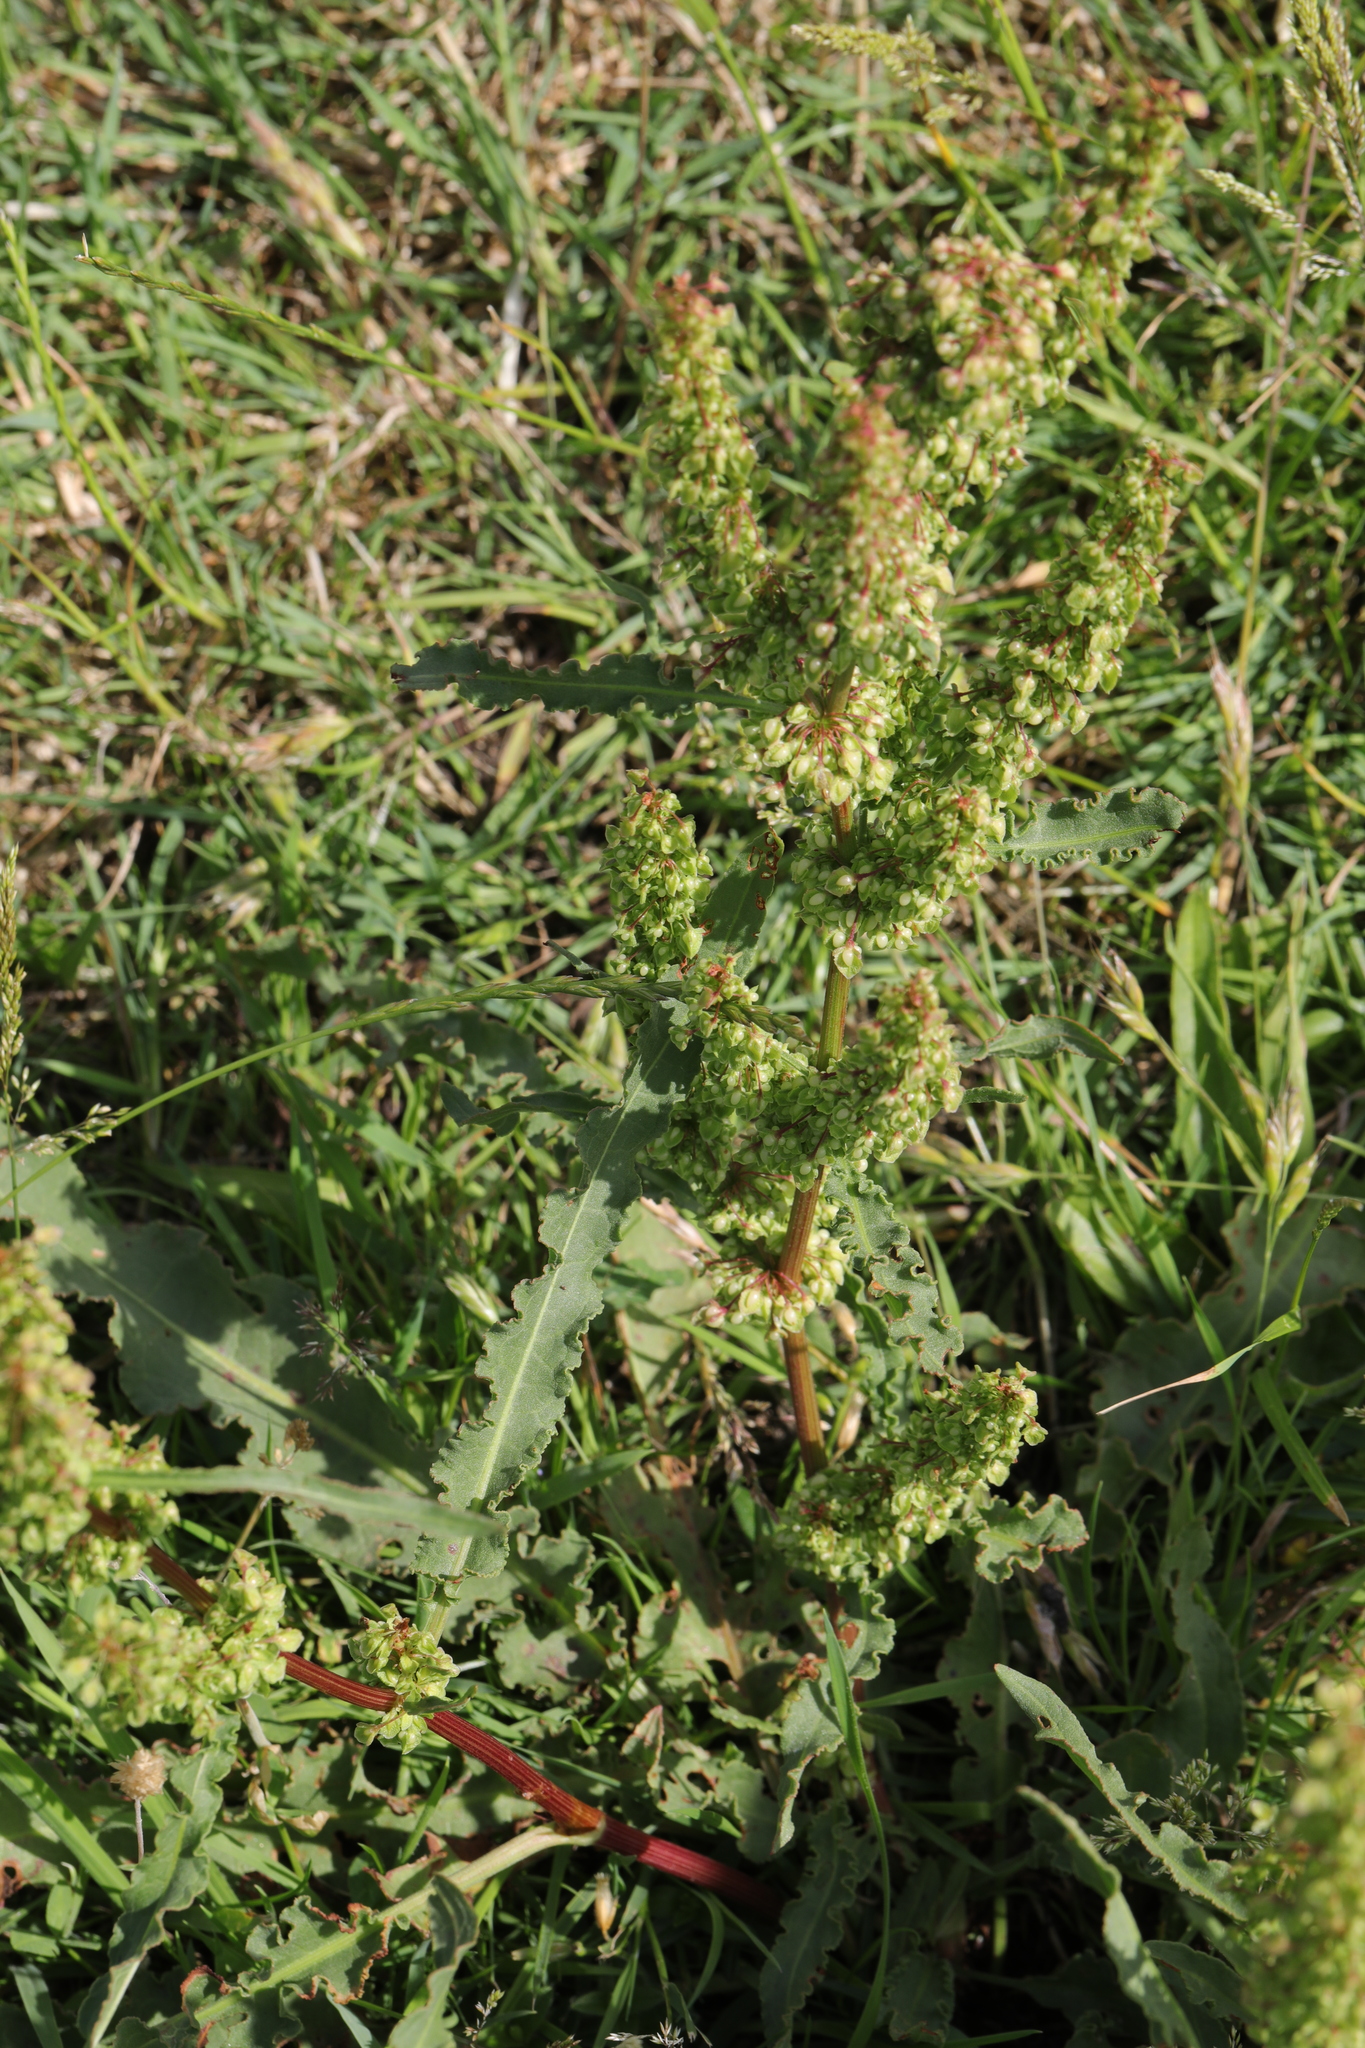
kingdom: Plantae
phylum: Tracheophyta
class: Magnoliopsida
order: Caryophyllales
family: Polygonaceae
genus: Rumex
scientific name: Rumex crispus
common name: Curled dock
